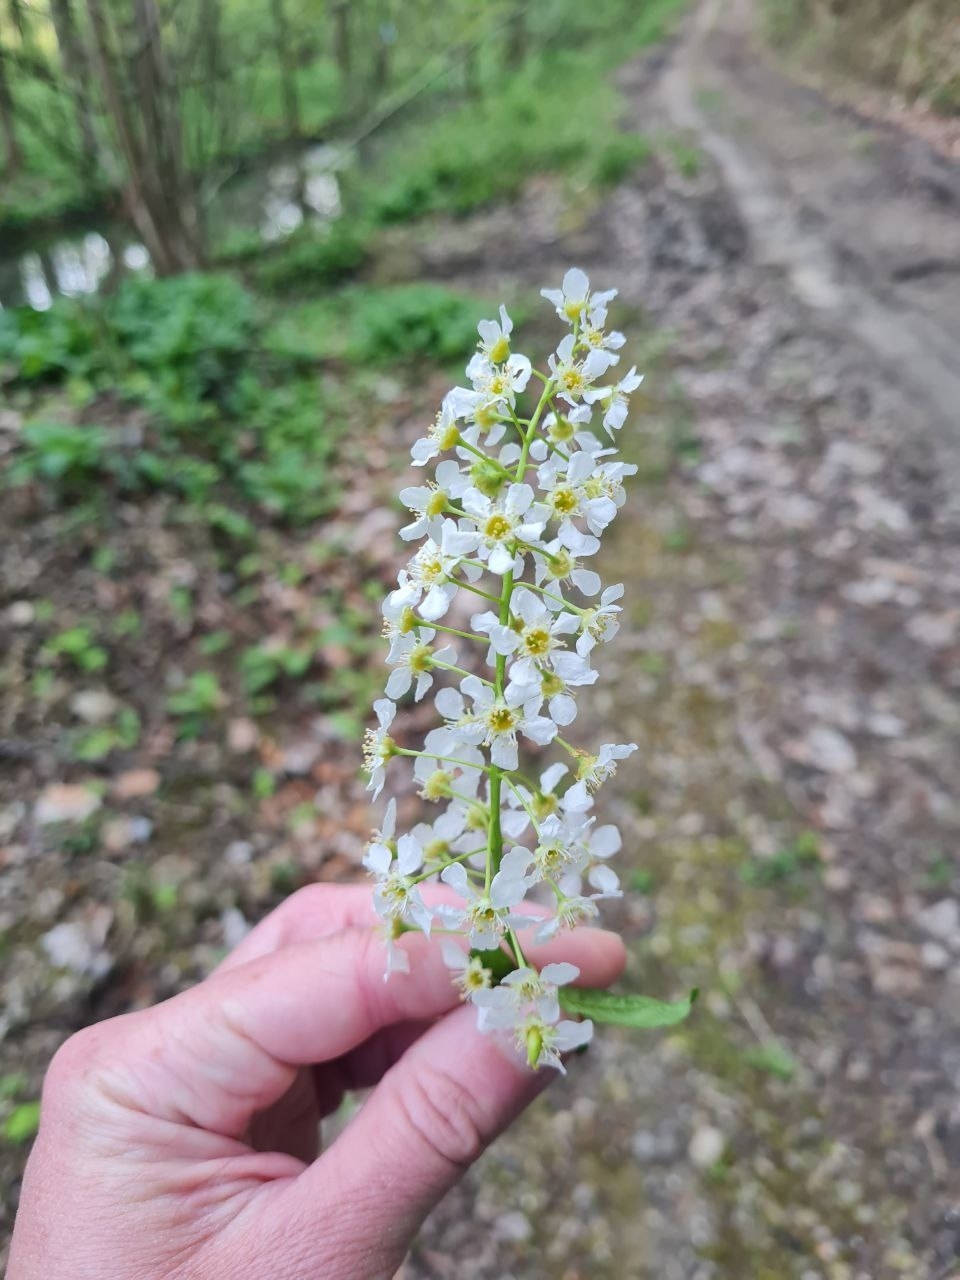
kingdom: Plantae
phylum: Tracheophyta
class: Magnoliopsida
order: Rosales
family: Rosaceae
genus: Prunus
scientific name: Prunus padus
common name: Bird cherry
